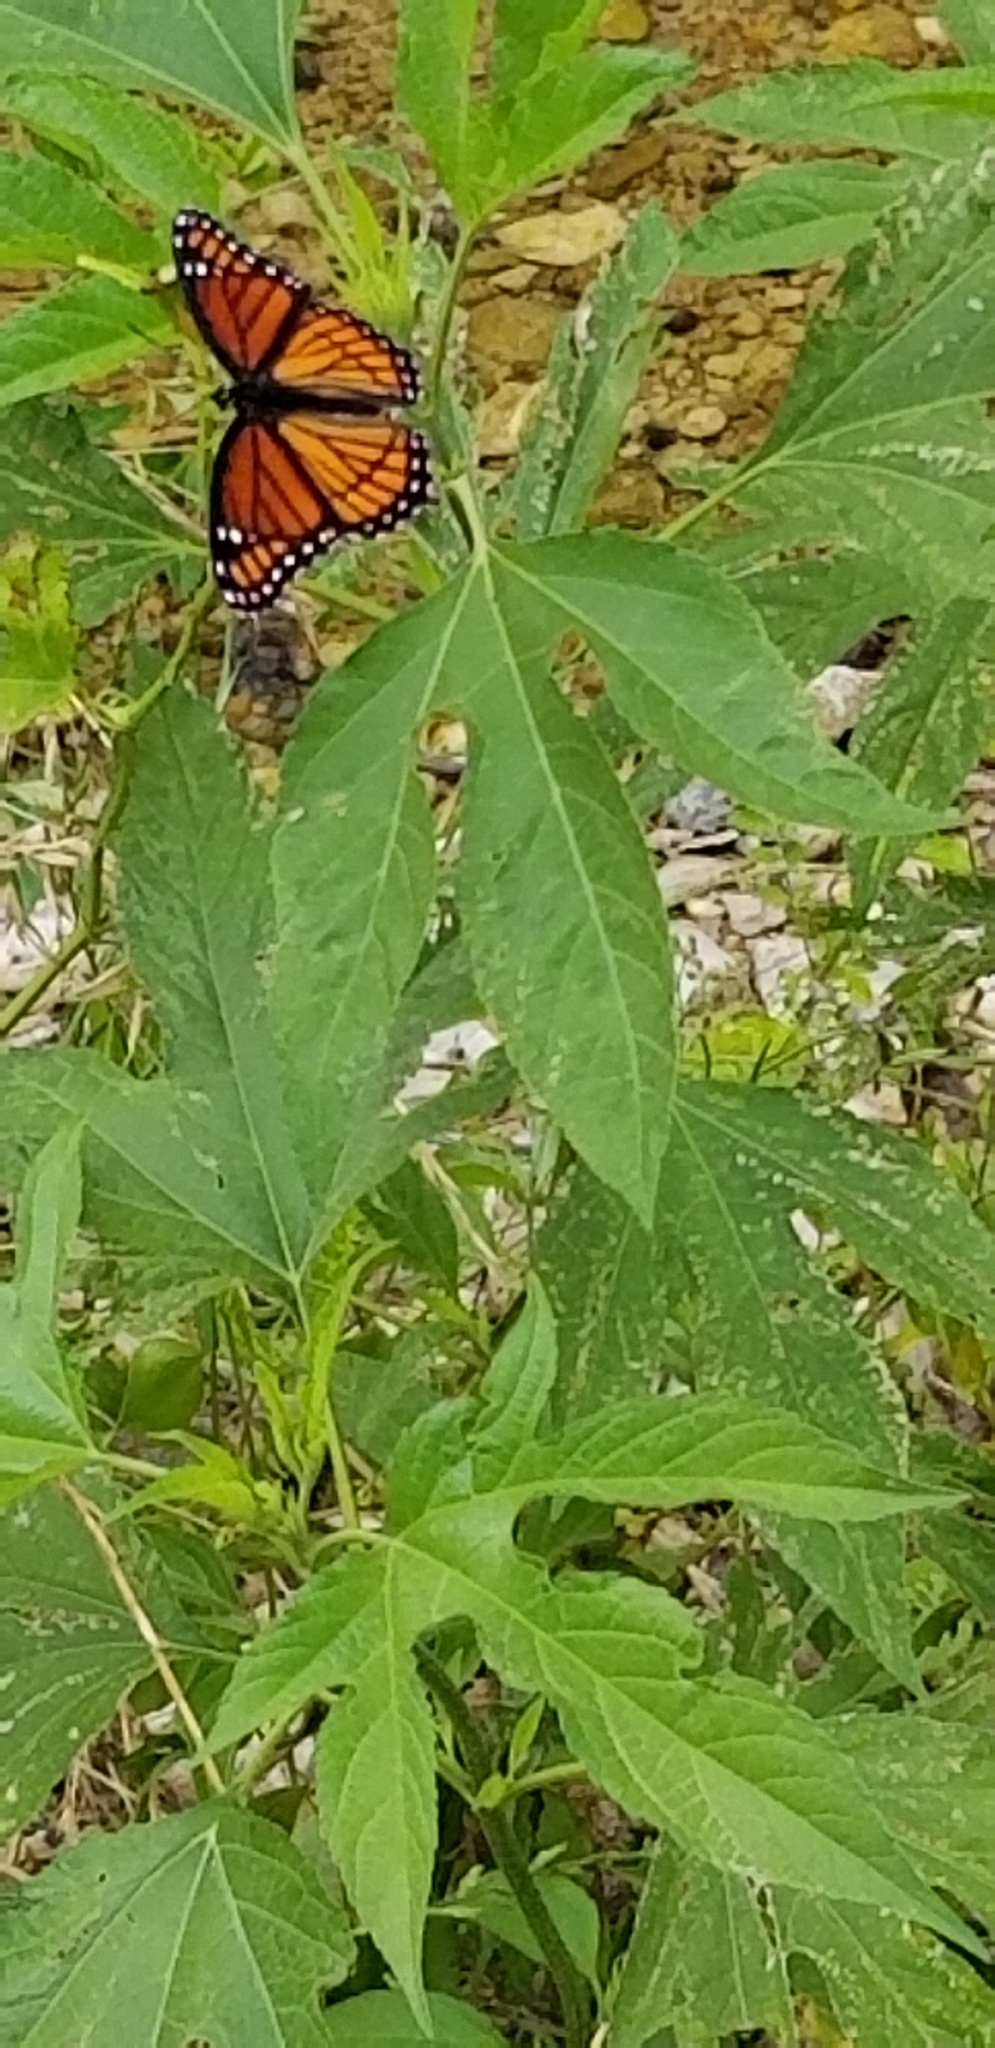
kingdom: Animalia
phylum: Arthropoda
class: Insecta
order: Lepidoptera
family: Nymphalidae
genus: Limenitis
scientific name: Limenitis archippus
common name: Viceroy
